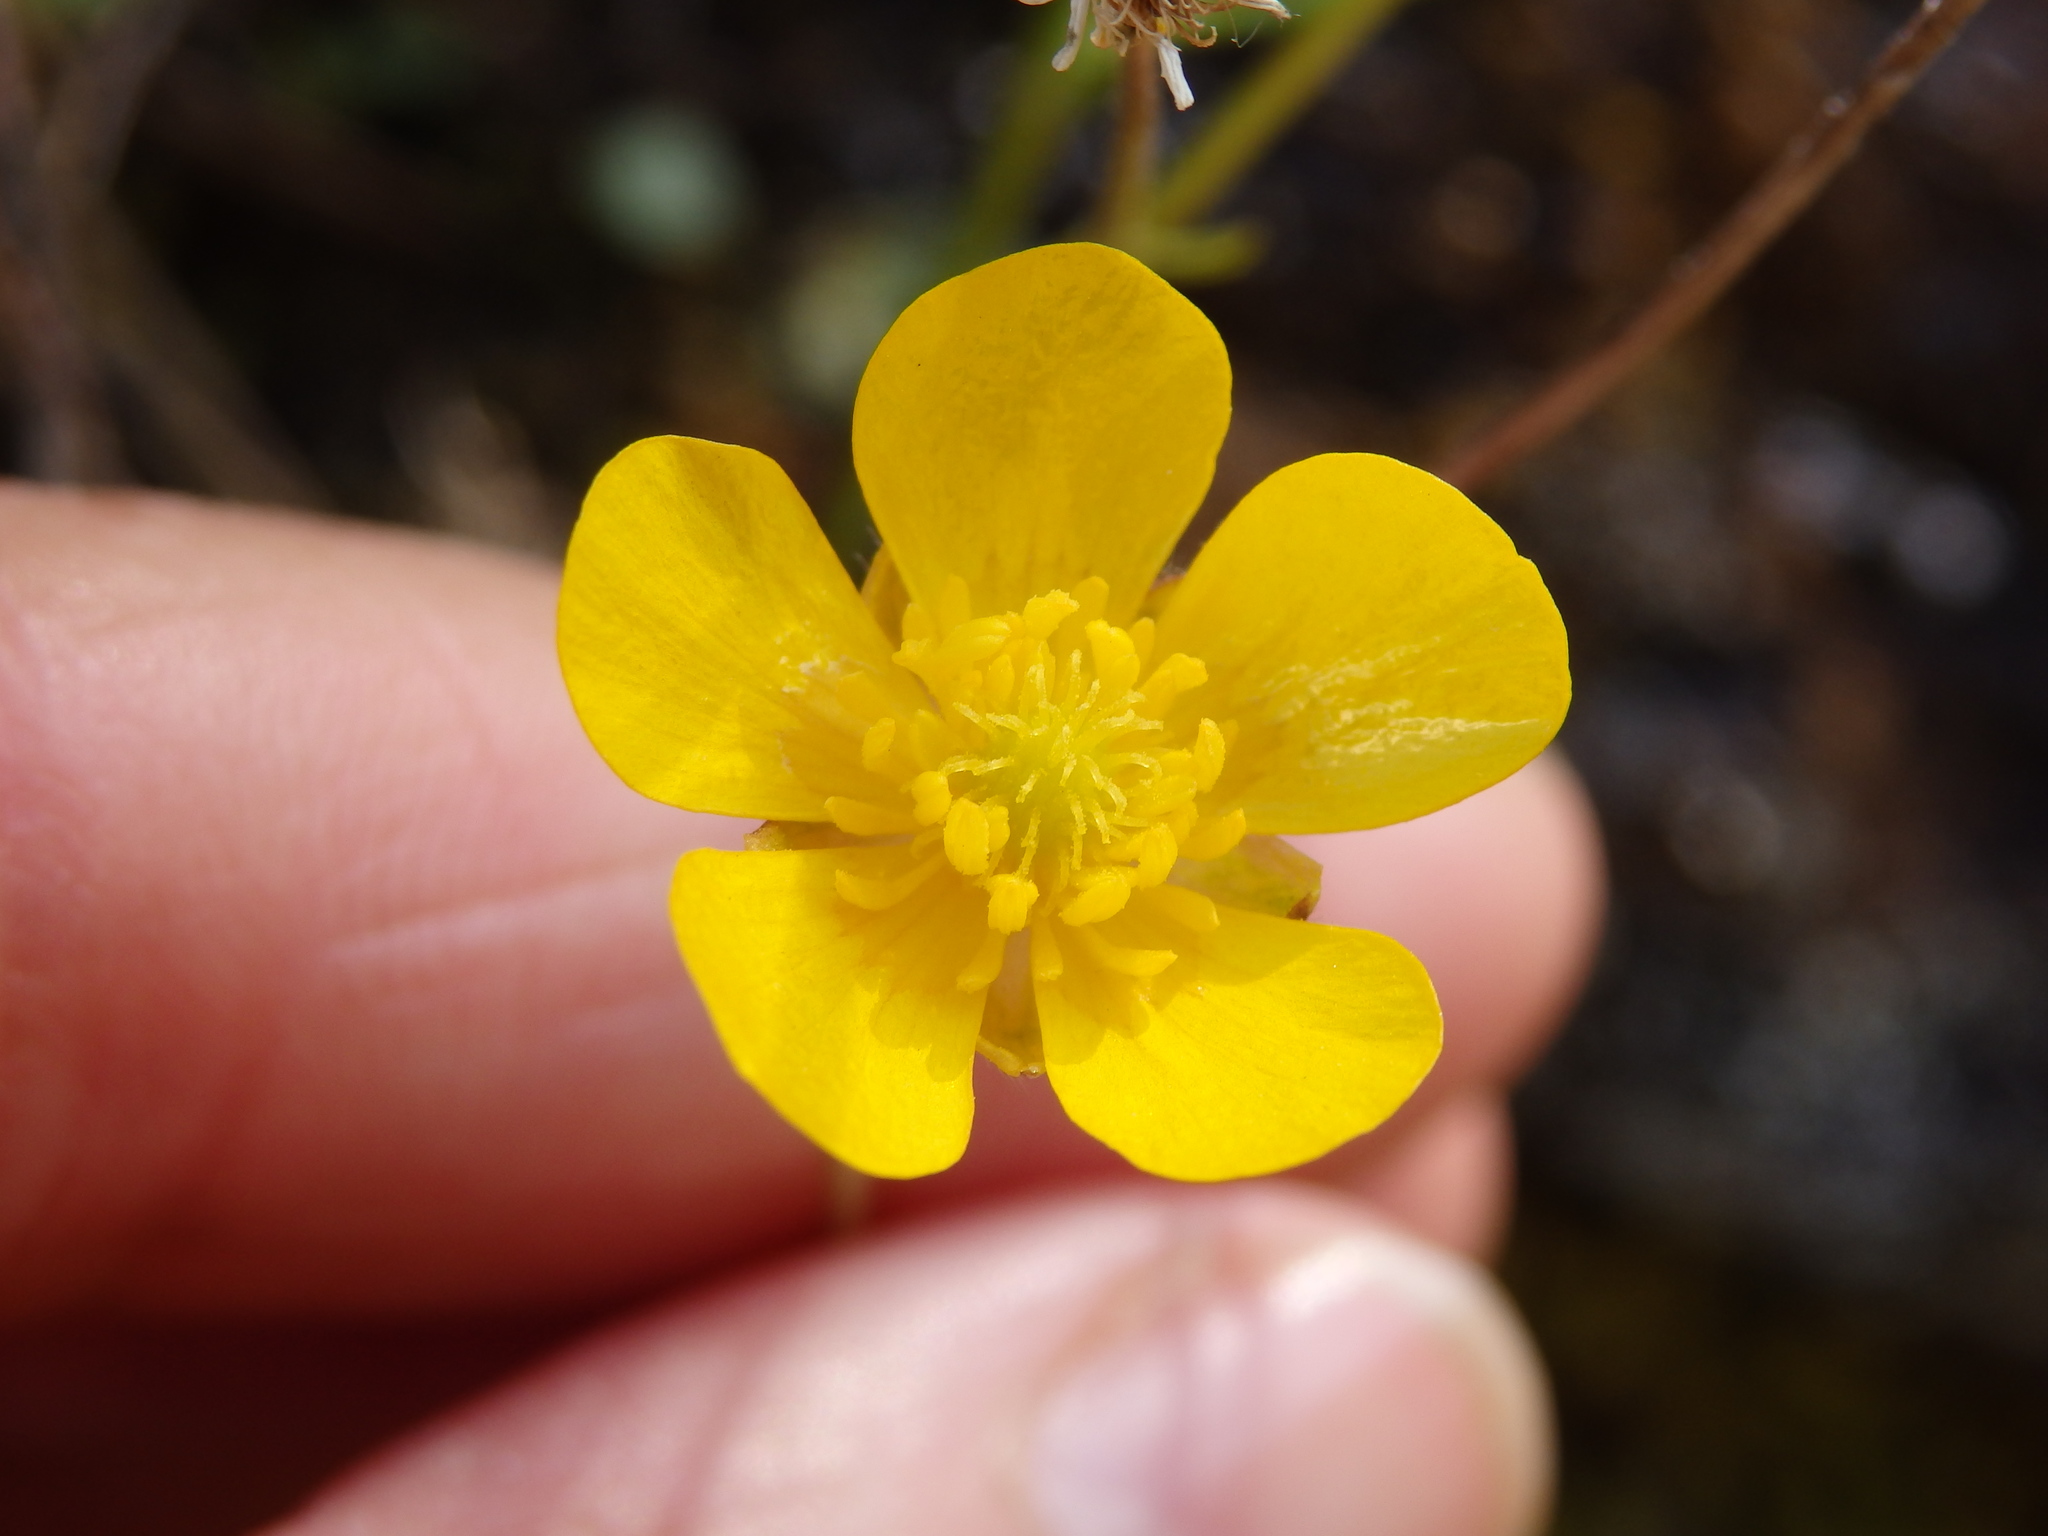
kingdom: Plantae
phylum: Tracheophyta
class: Magnoliopsida
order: Ranunculales
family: Ranunculaceae
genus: Ranunculus
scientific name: Ranunculus ollissiponensis
